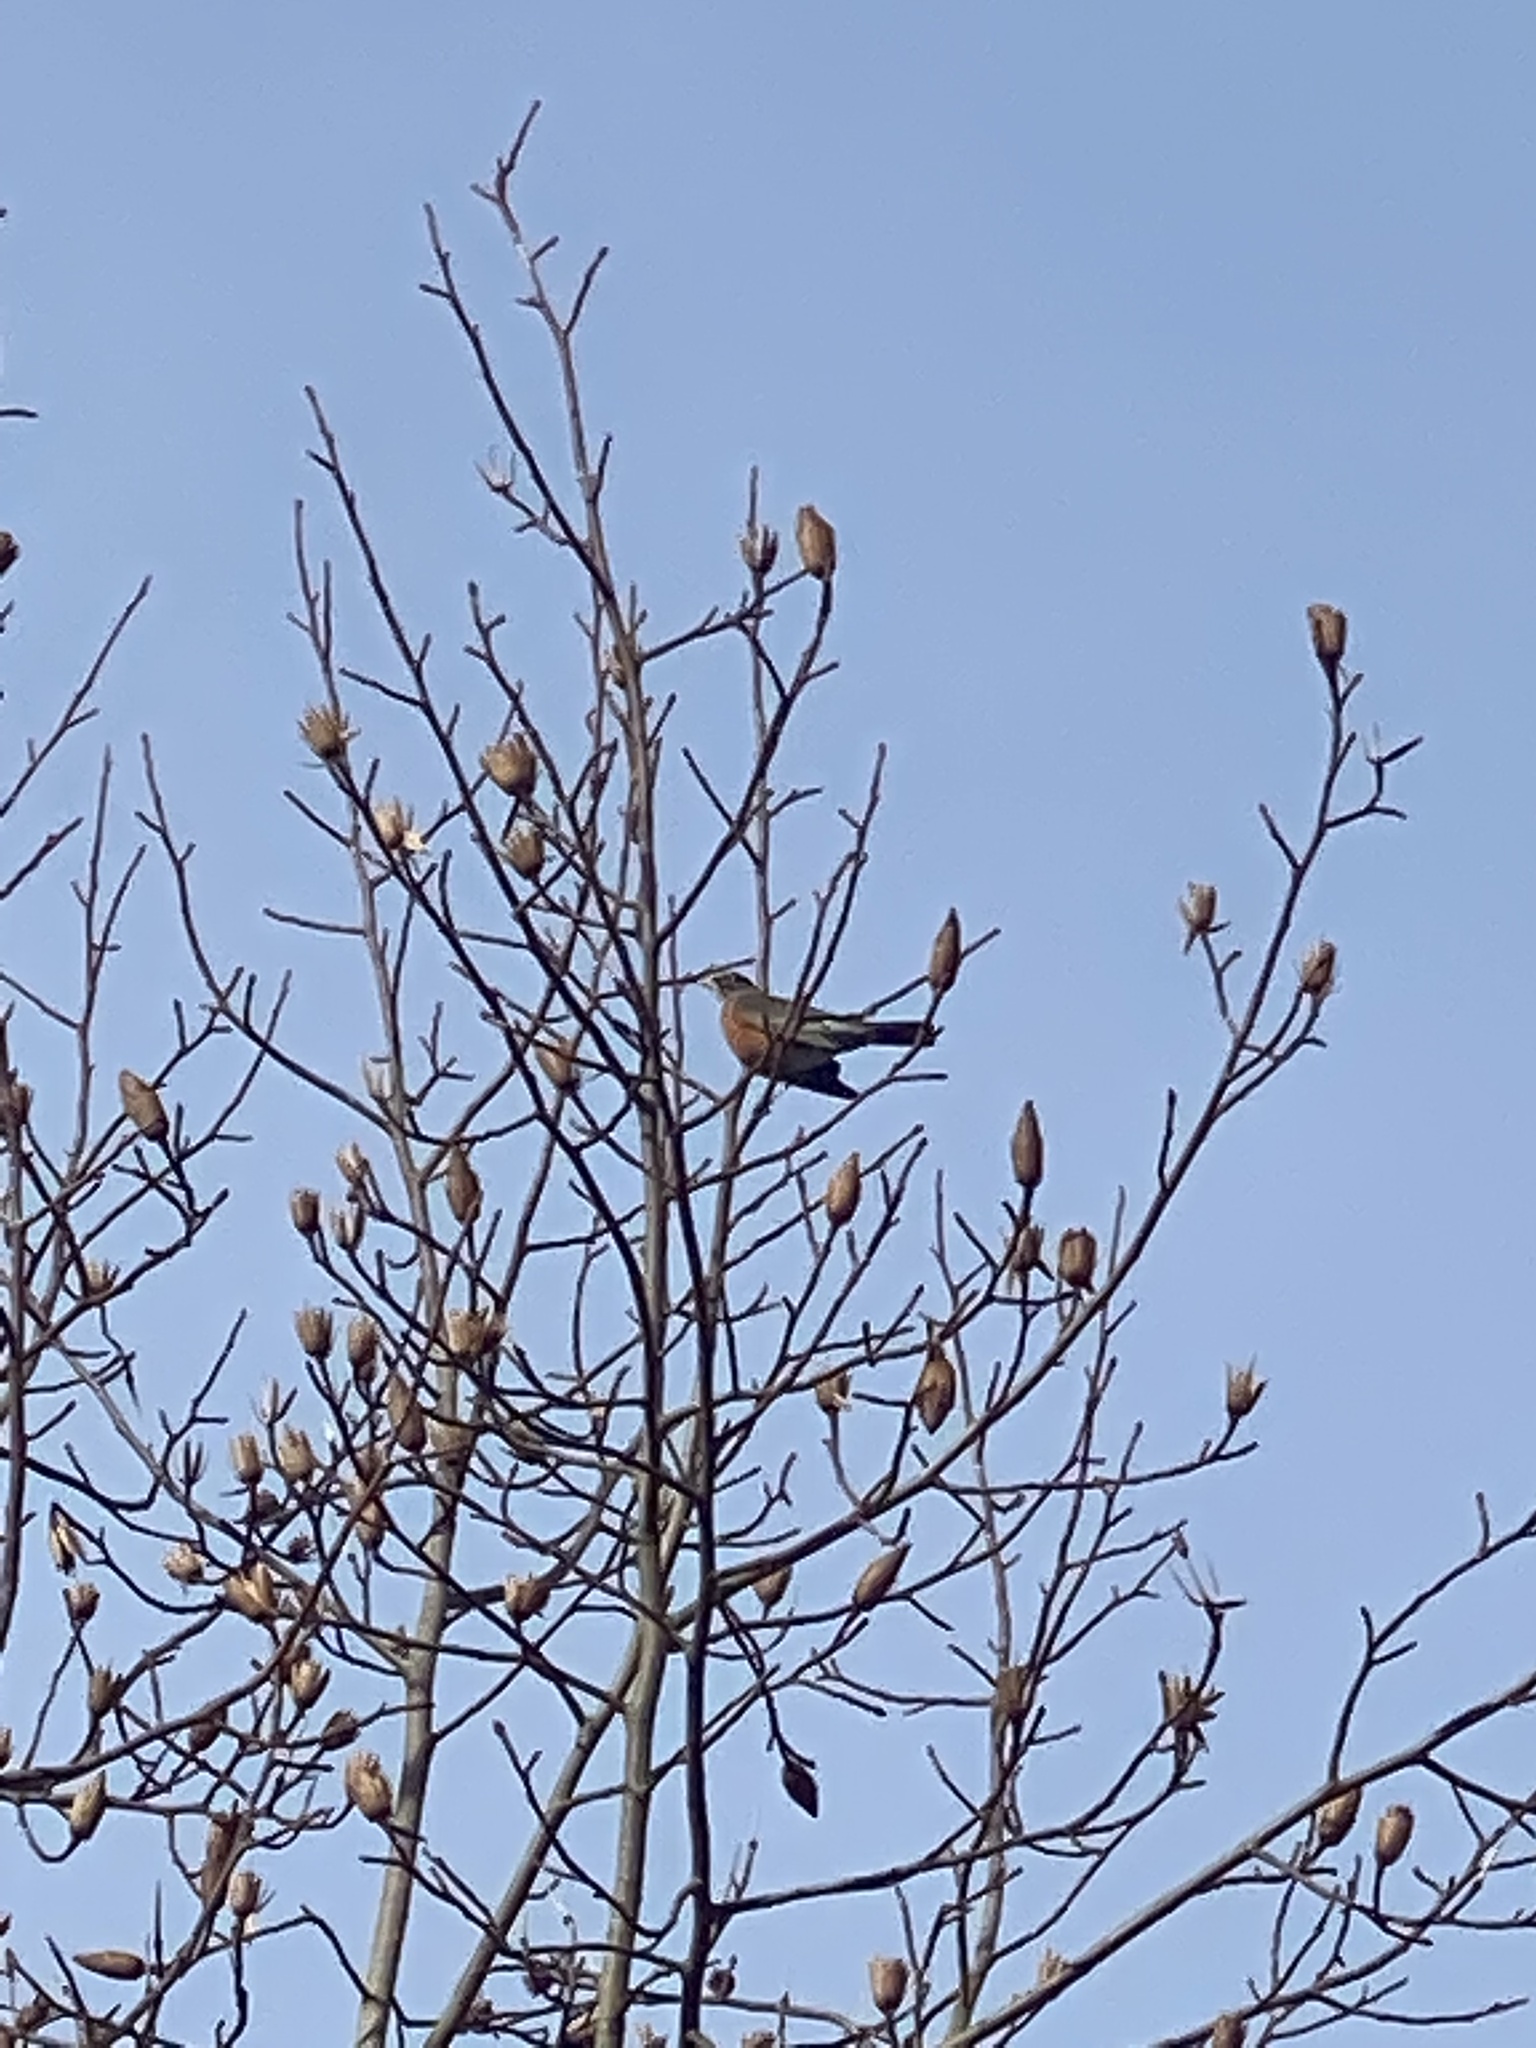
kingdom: Animalia
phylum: Chordata
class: Aves
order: Passeriformes
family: Turdidae
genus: Turdus
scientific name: Turdus migratorius
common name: American robin
